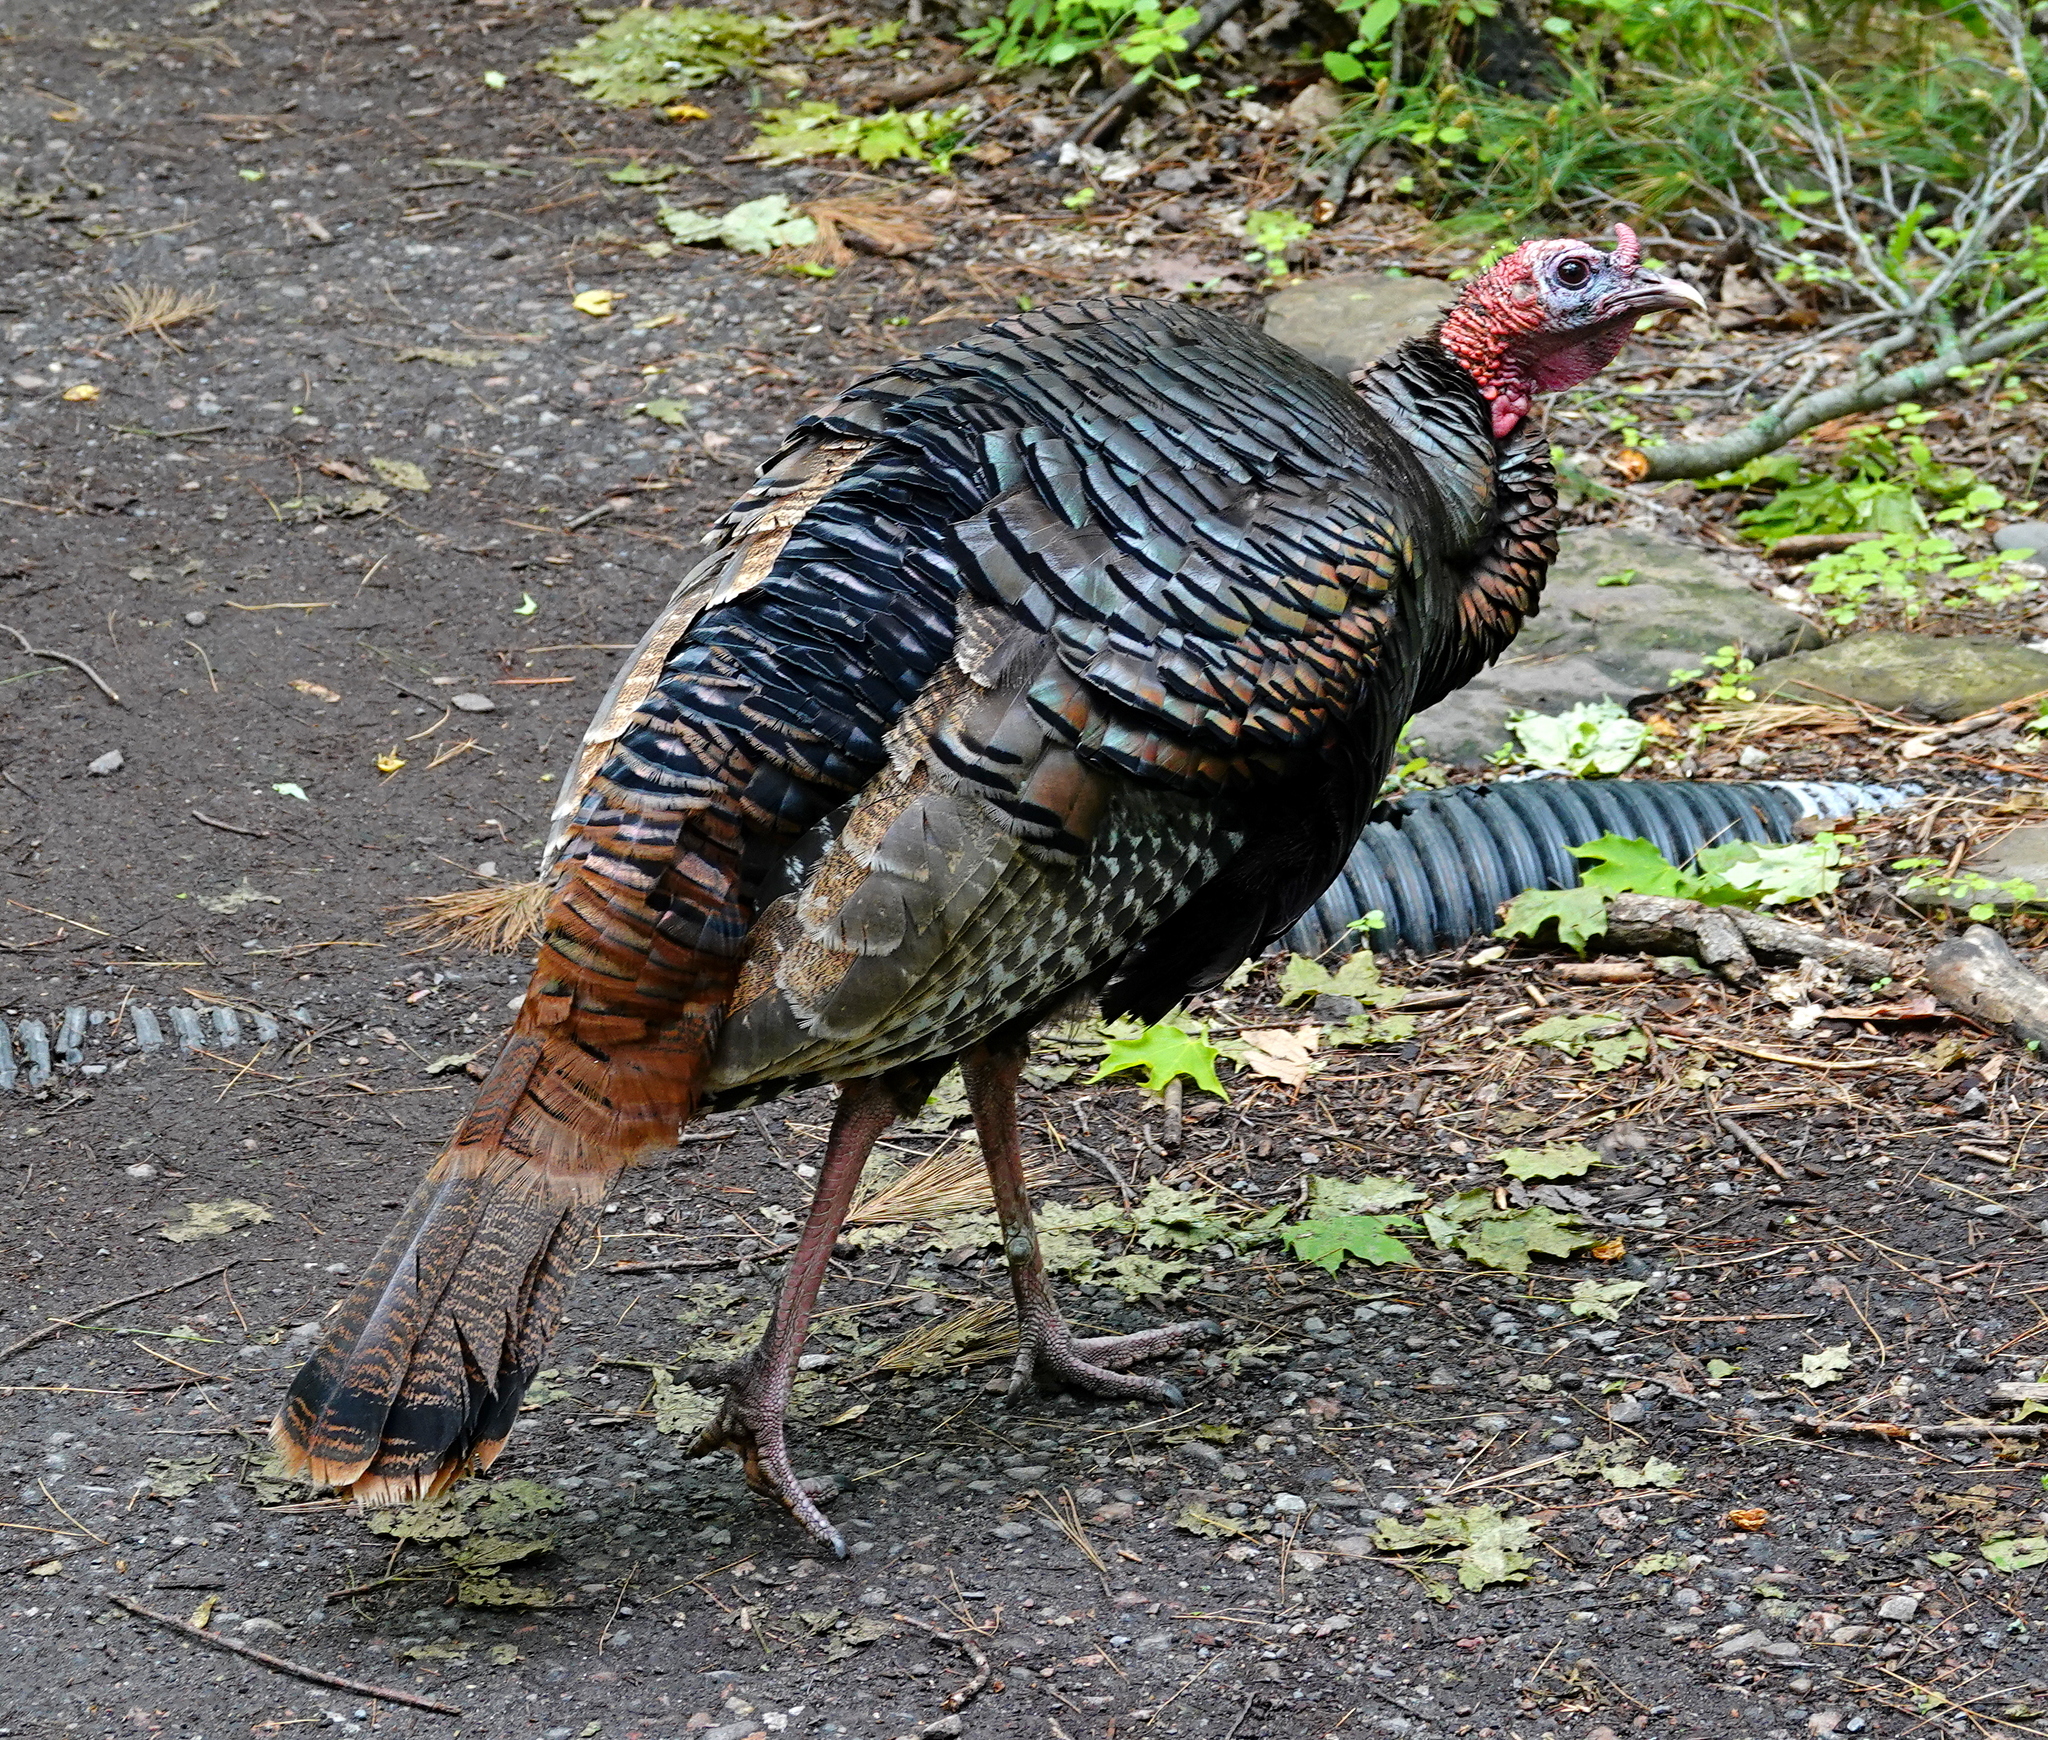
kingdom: Animalia
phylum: Chordata
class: Aves
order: Galliformes
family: Phasianidae
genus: Meleagris
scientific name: Meleagris gallopavo
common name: Wild turkey
